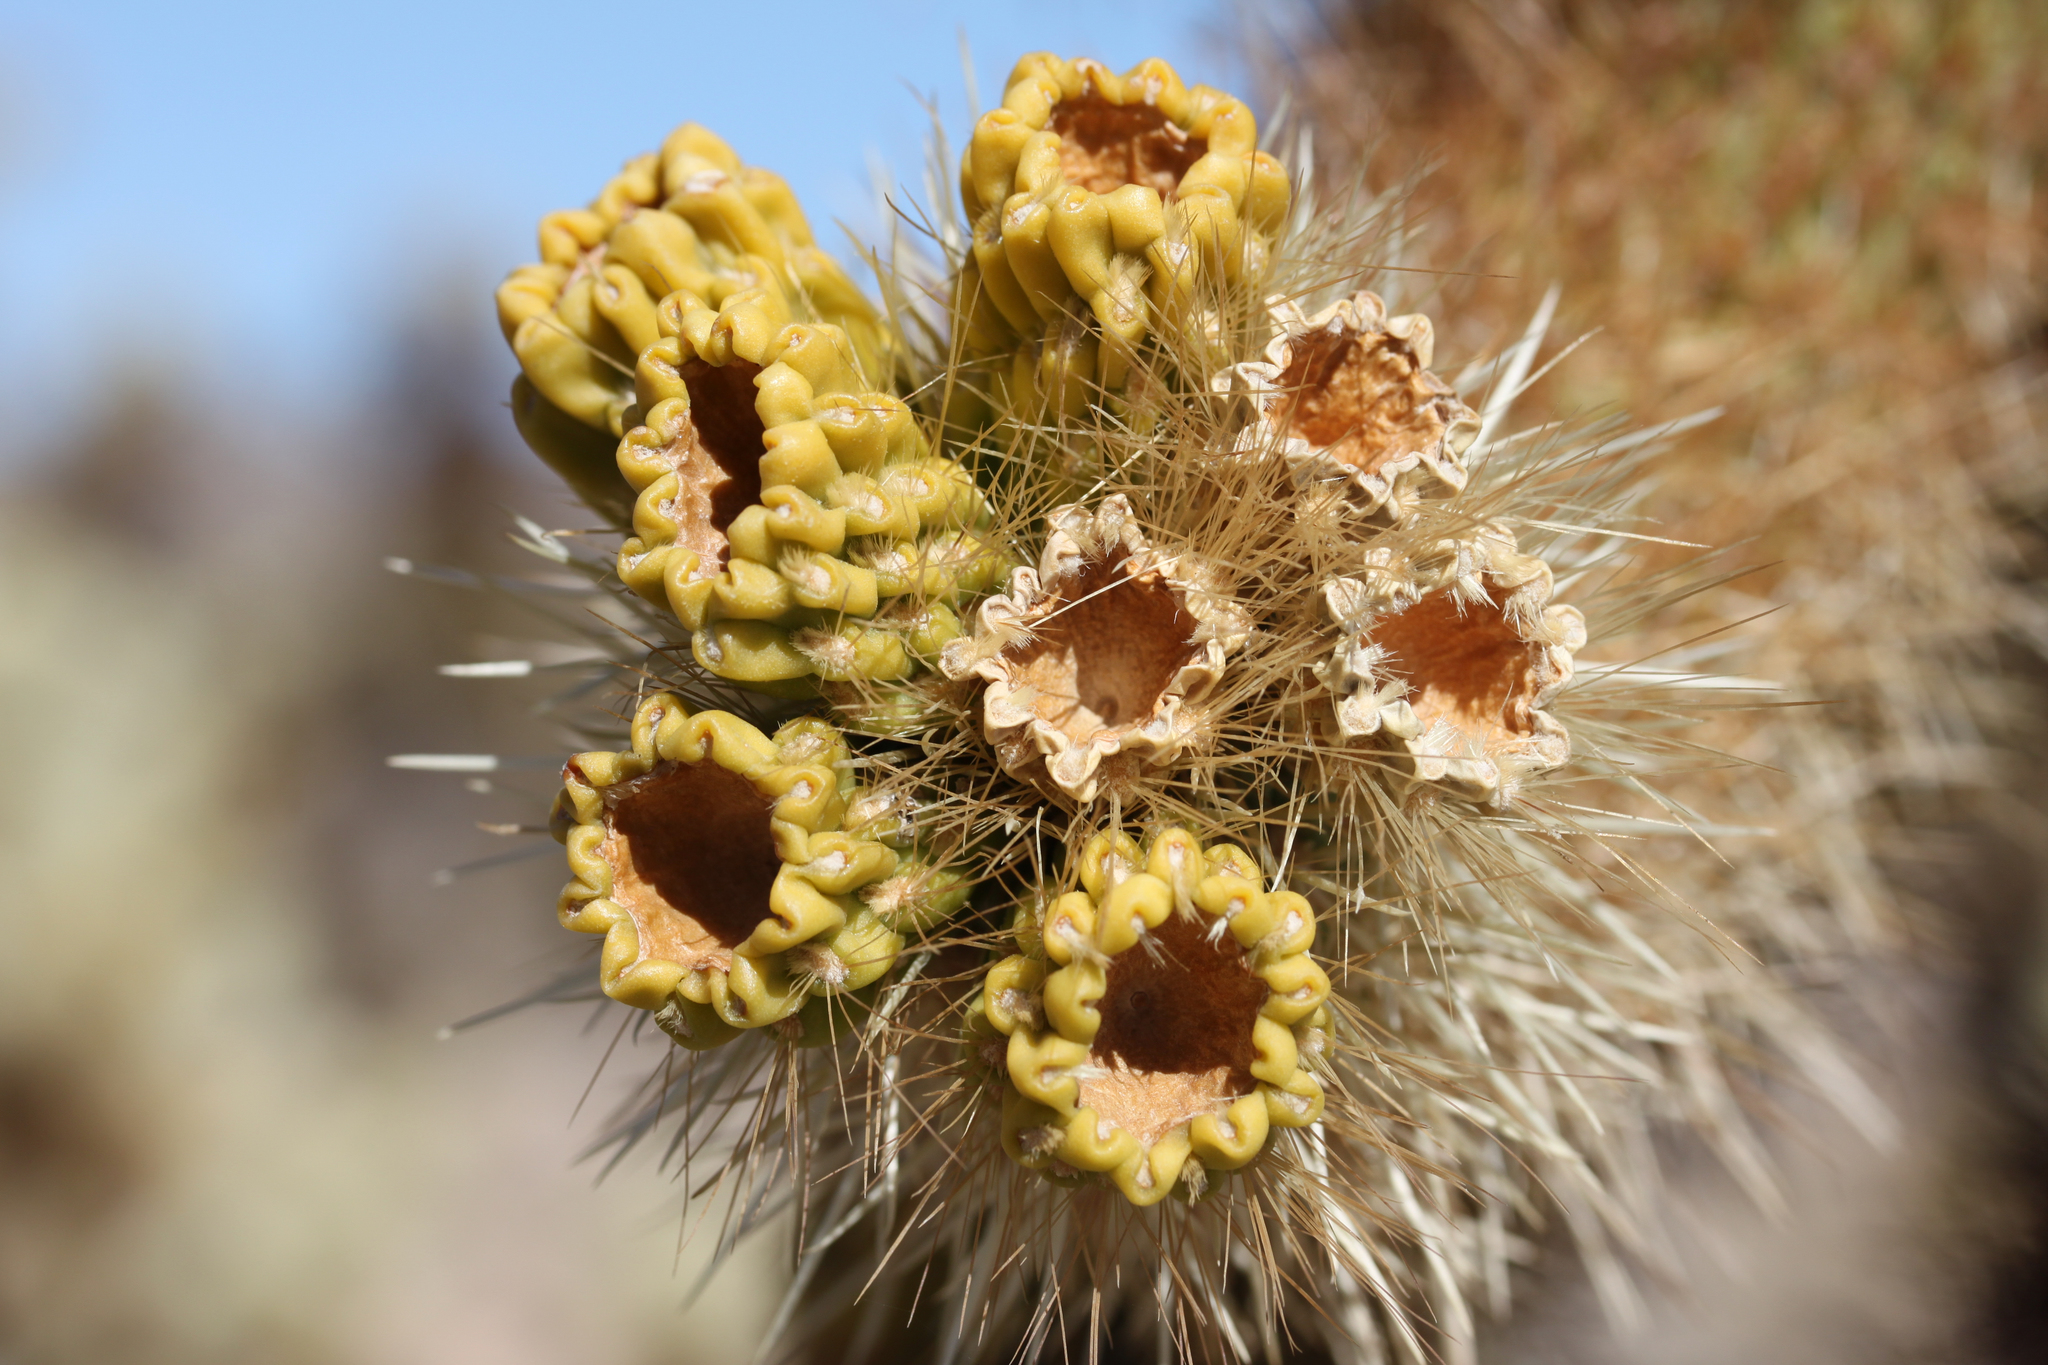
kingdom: Plantae
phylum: Tracheophyta
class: Magnoliopsida
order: Caryophyllales
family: Cactaceae
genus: Cylindropuntia
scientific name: Cylindropuntia fosbergii
